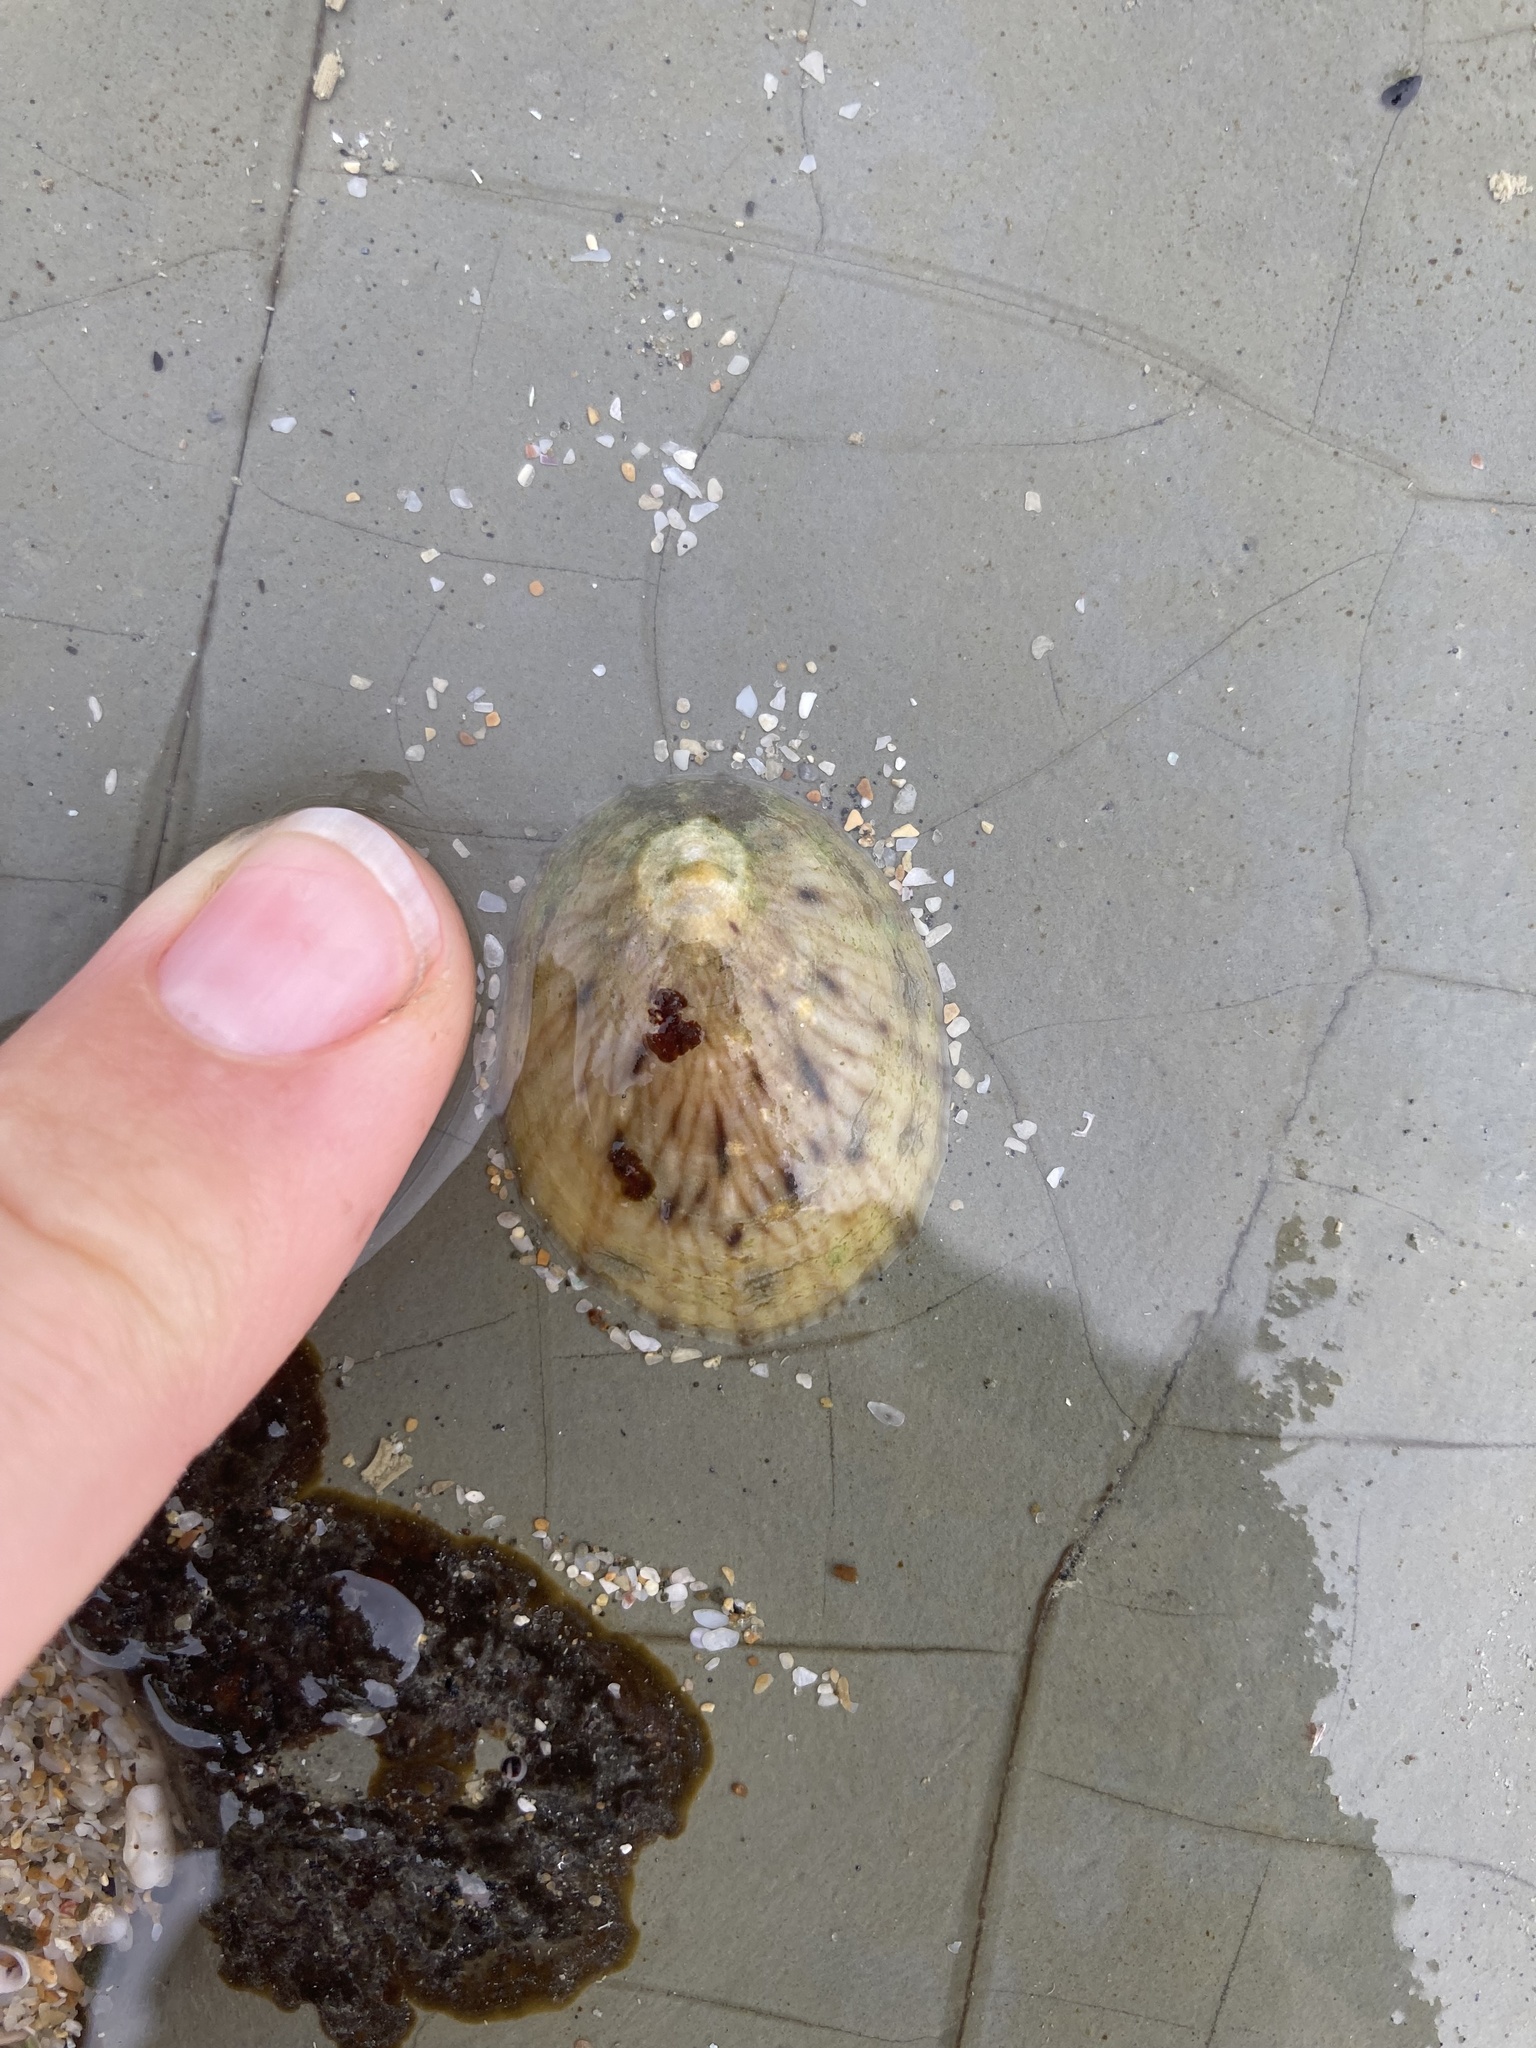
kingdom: Animalia
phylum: Mollusca
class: Gastropoda
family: Nacellidae
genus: Cellana
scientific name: Cellana radians
